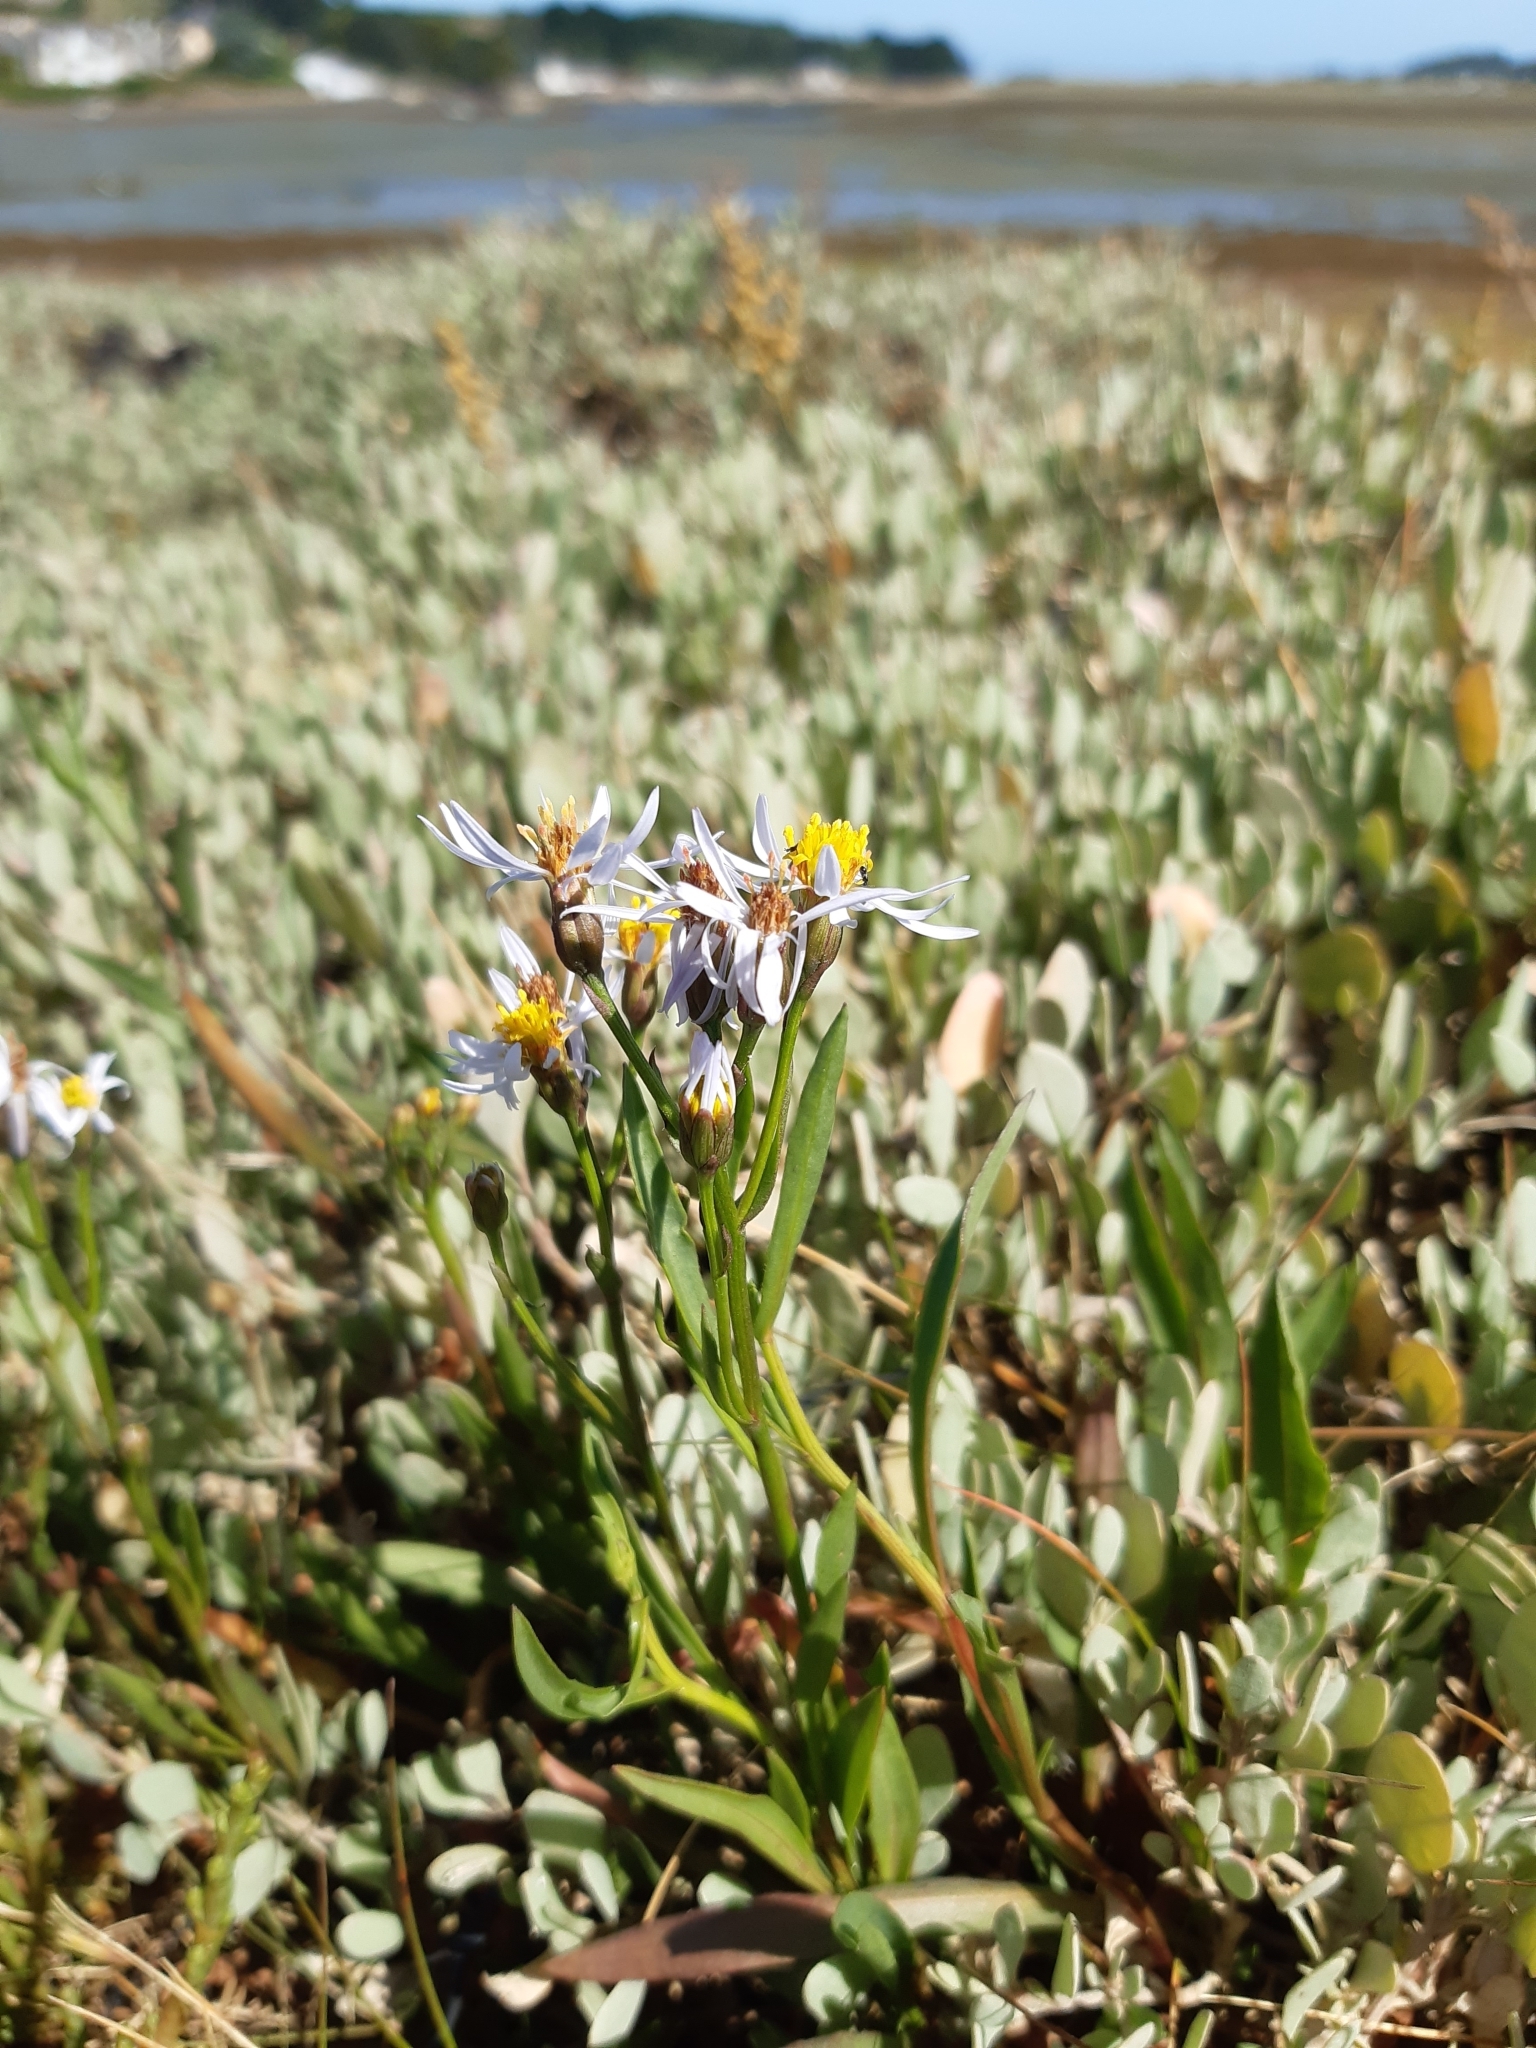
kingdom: Plantae
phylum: Tracheophyta
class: Magnoliopsida
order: Asterales
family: Asteraceae
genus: Tripolium
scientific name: Tripolium pannonicum
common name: Sea aster
